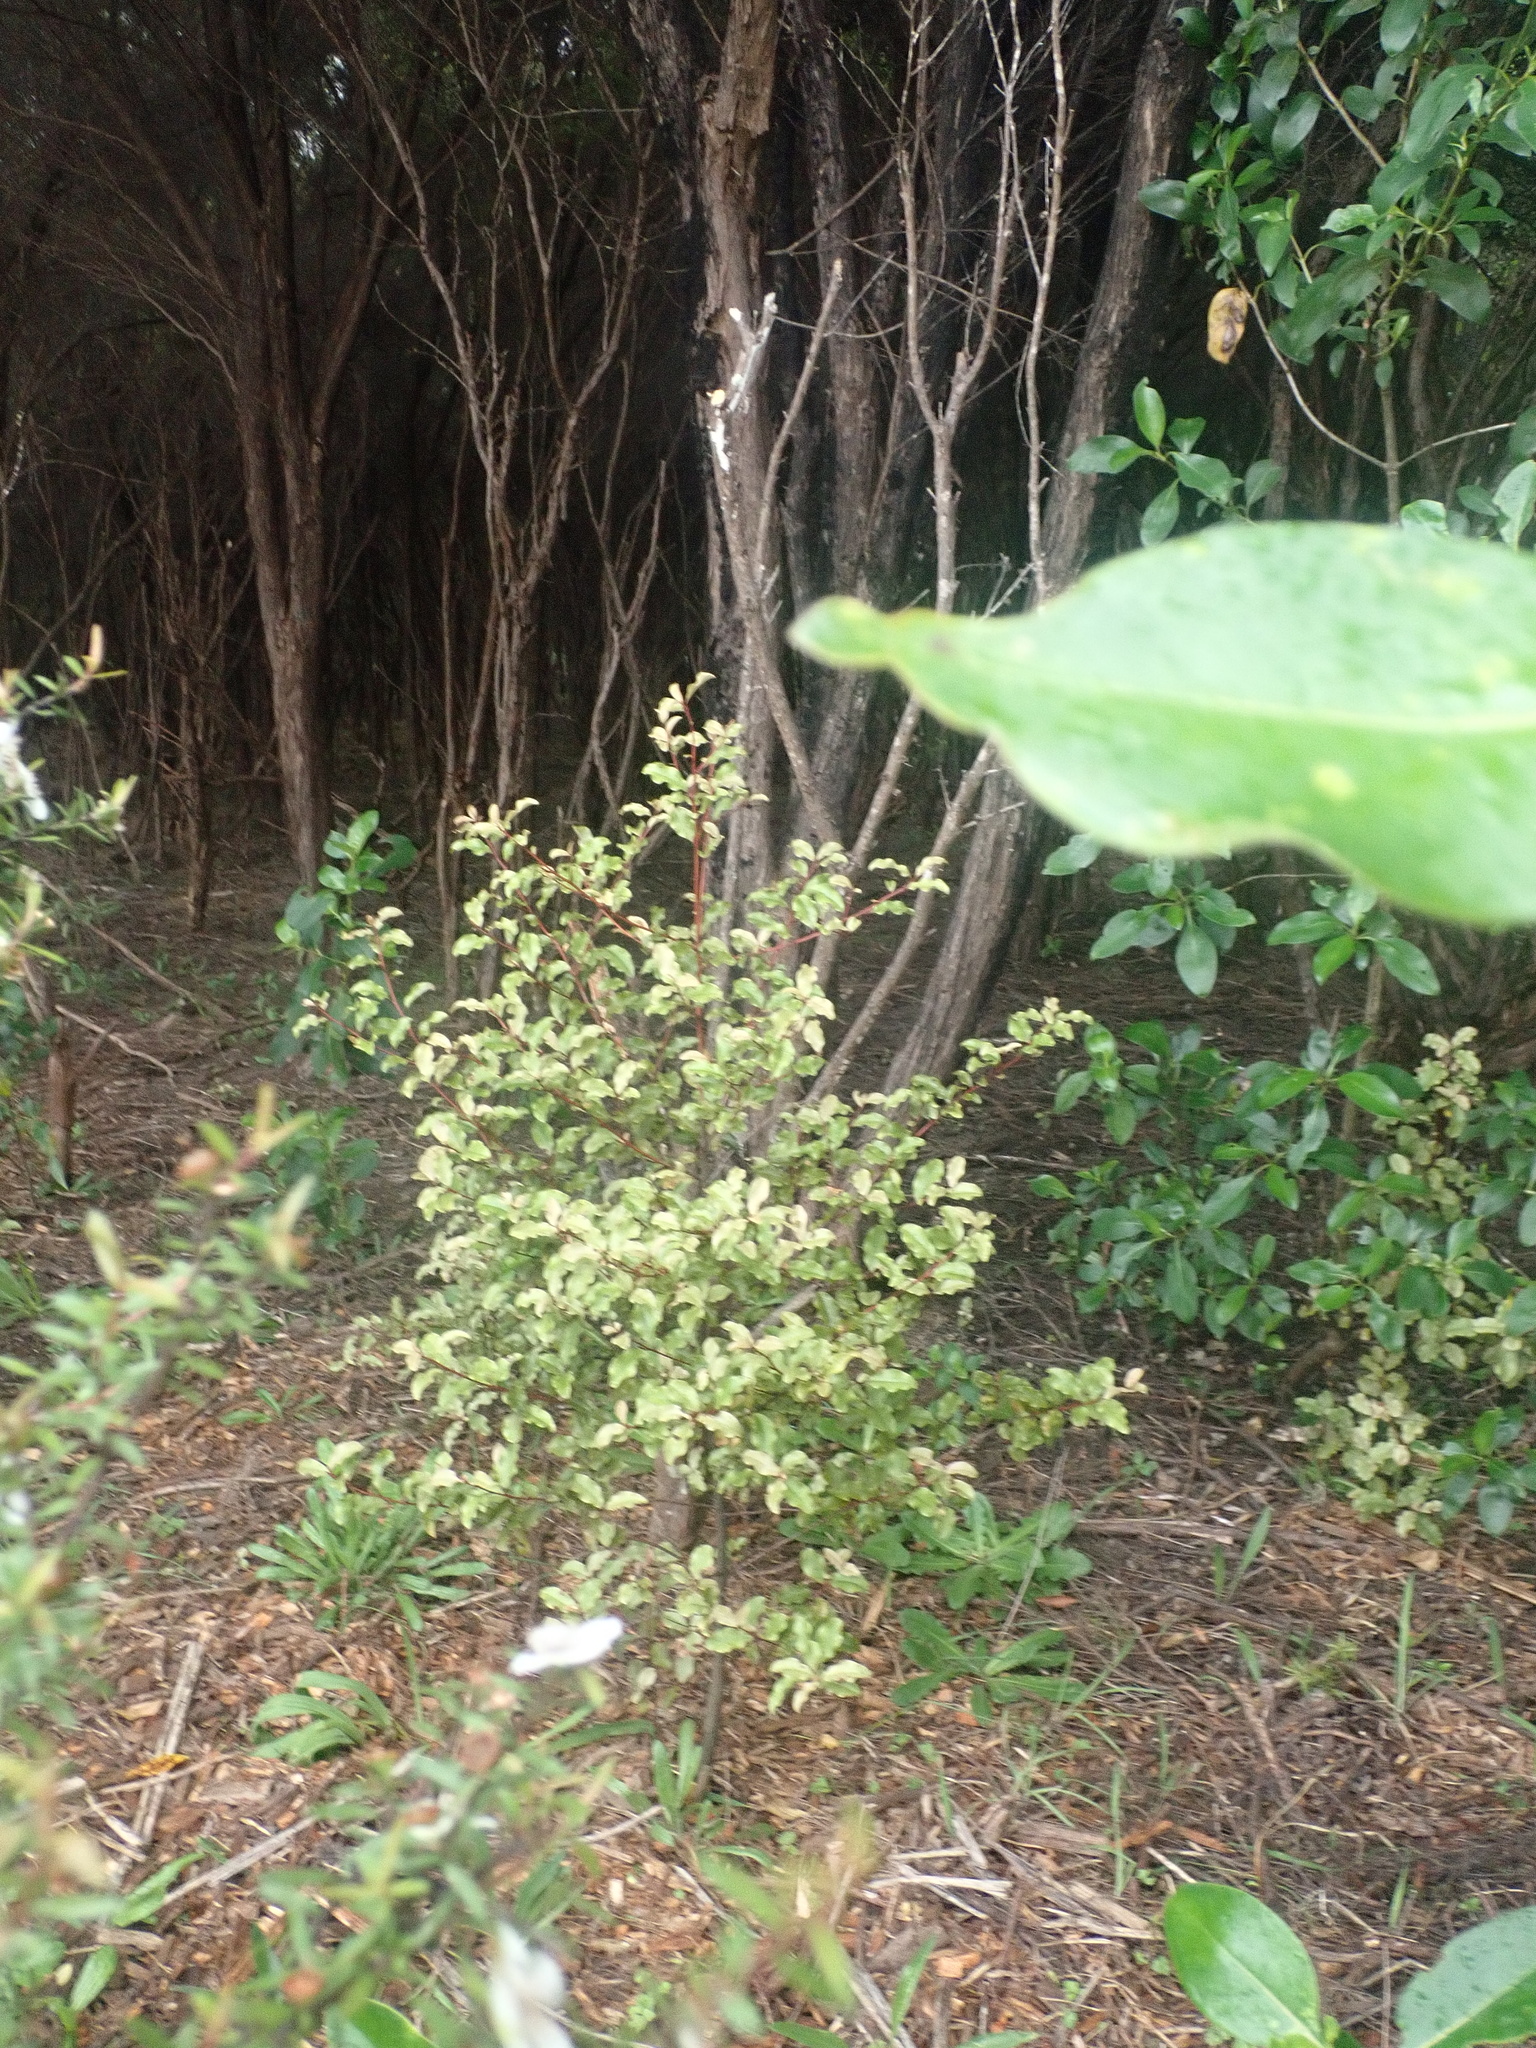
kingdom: Plantae
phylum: Tracheophyta
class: Magnoliopsida
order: Ericales
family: Primulaceae
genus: Myrsine
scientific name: Myrsine australis
